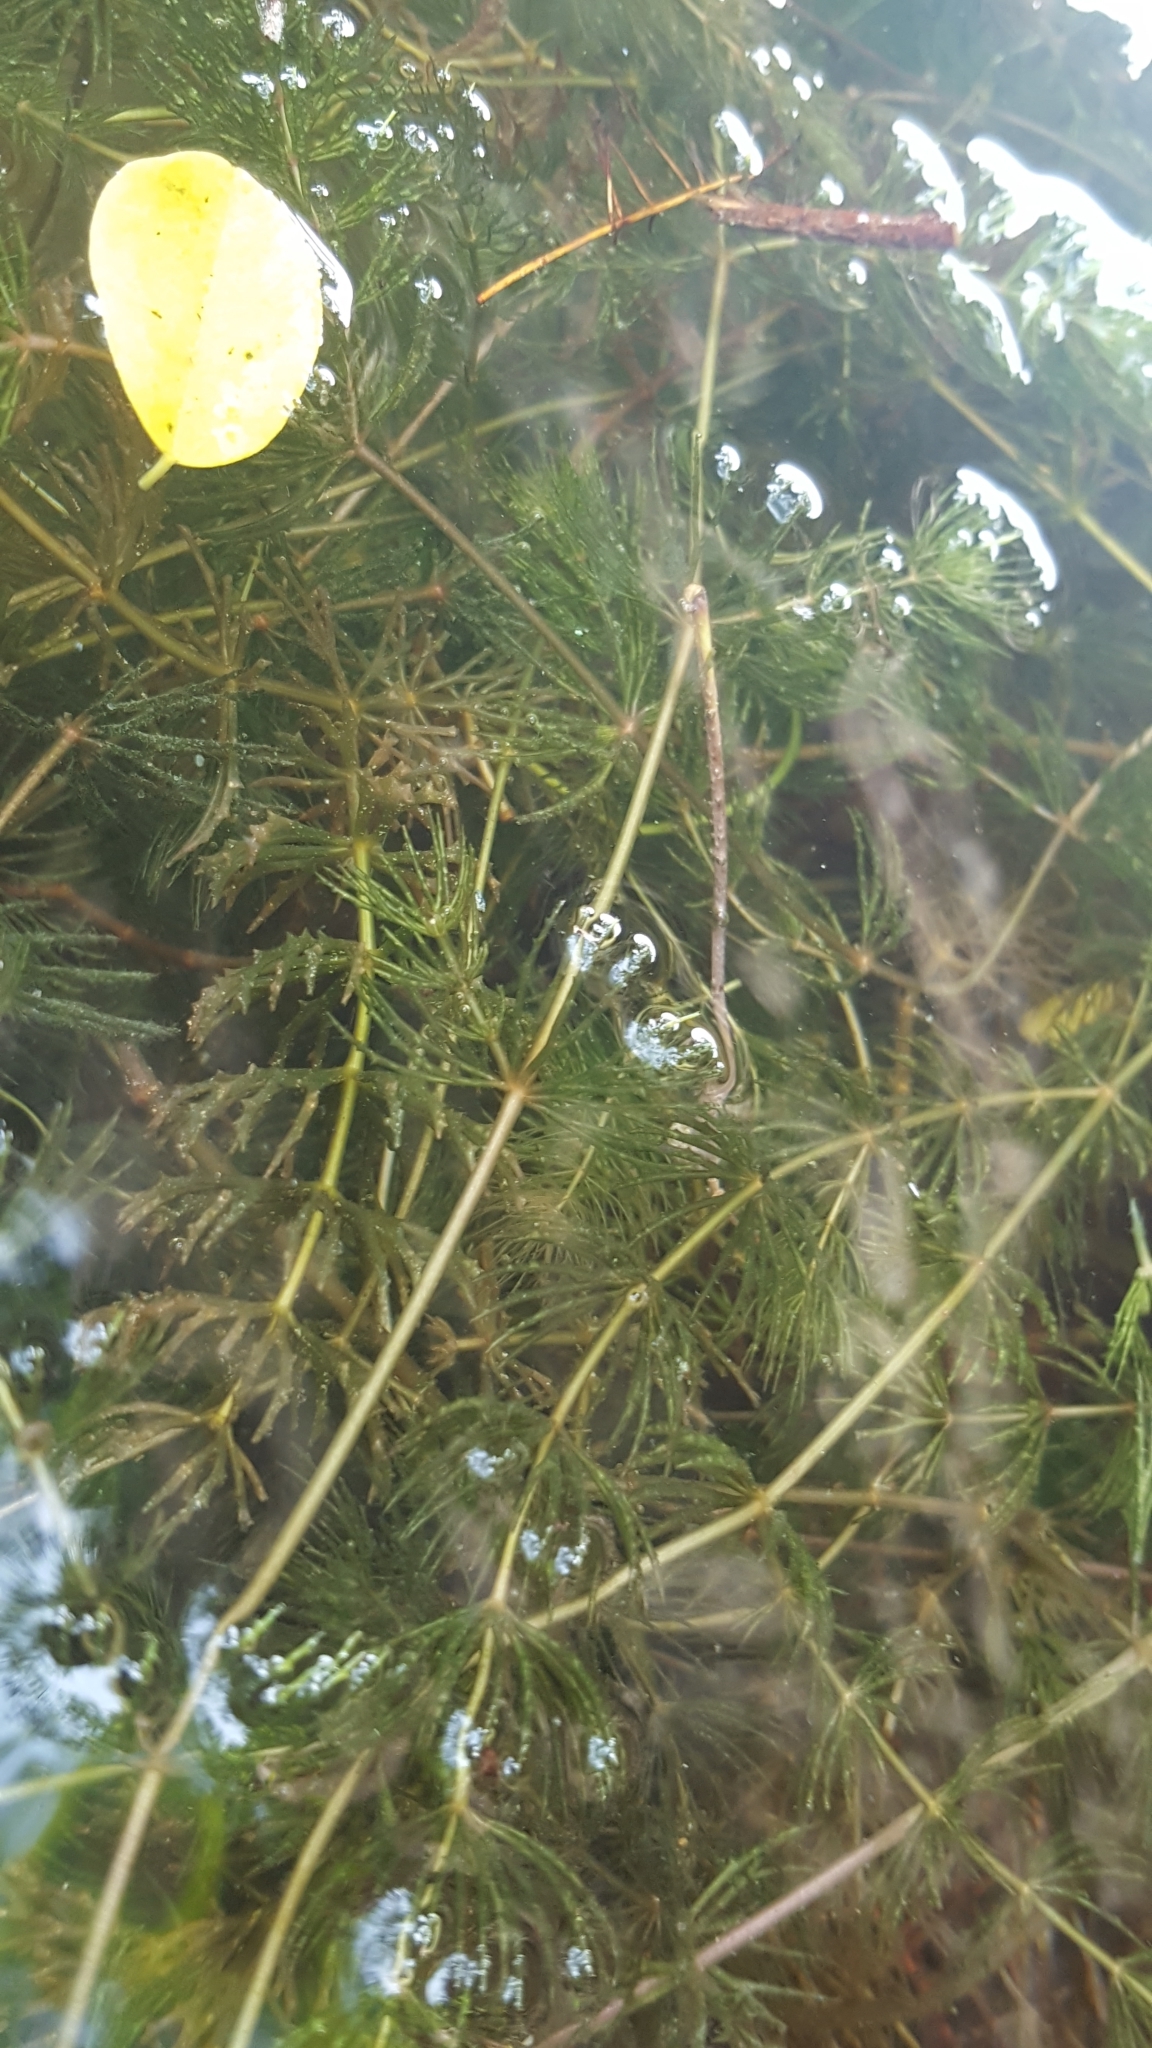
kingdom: Plantae
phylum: Tracheophyta
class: Magnoliopsida
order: Ceratophyllales
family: Ceratophyllaceae
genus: Ceratophyllum
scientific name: Ceratophyllum demersum
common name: Rigid hornwort
